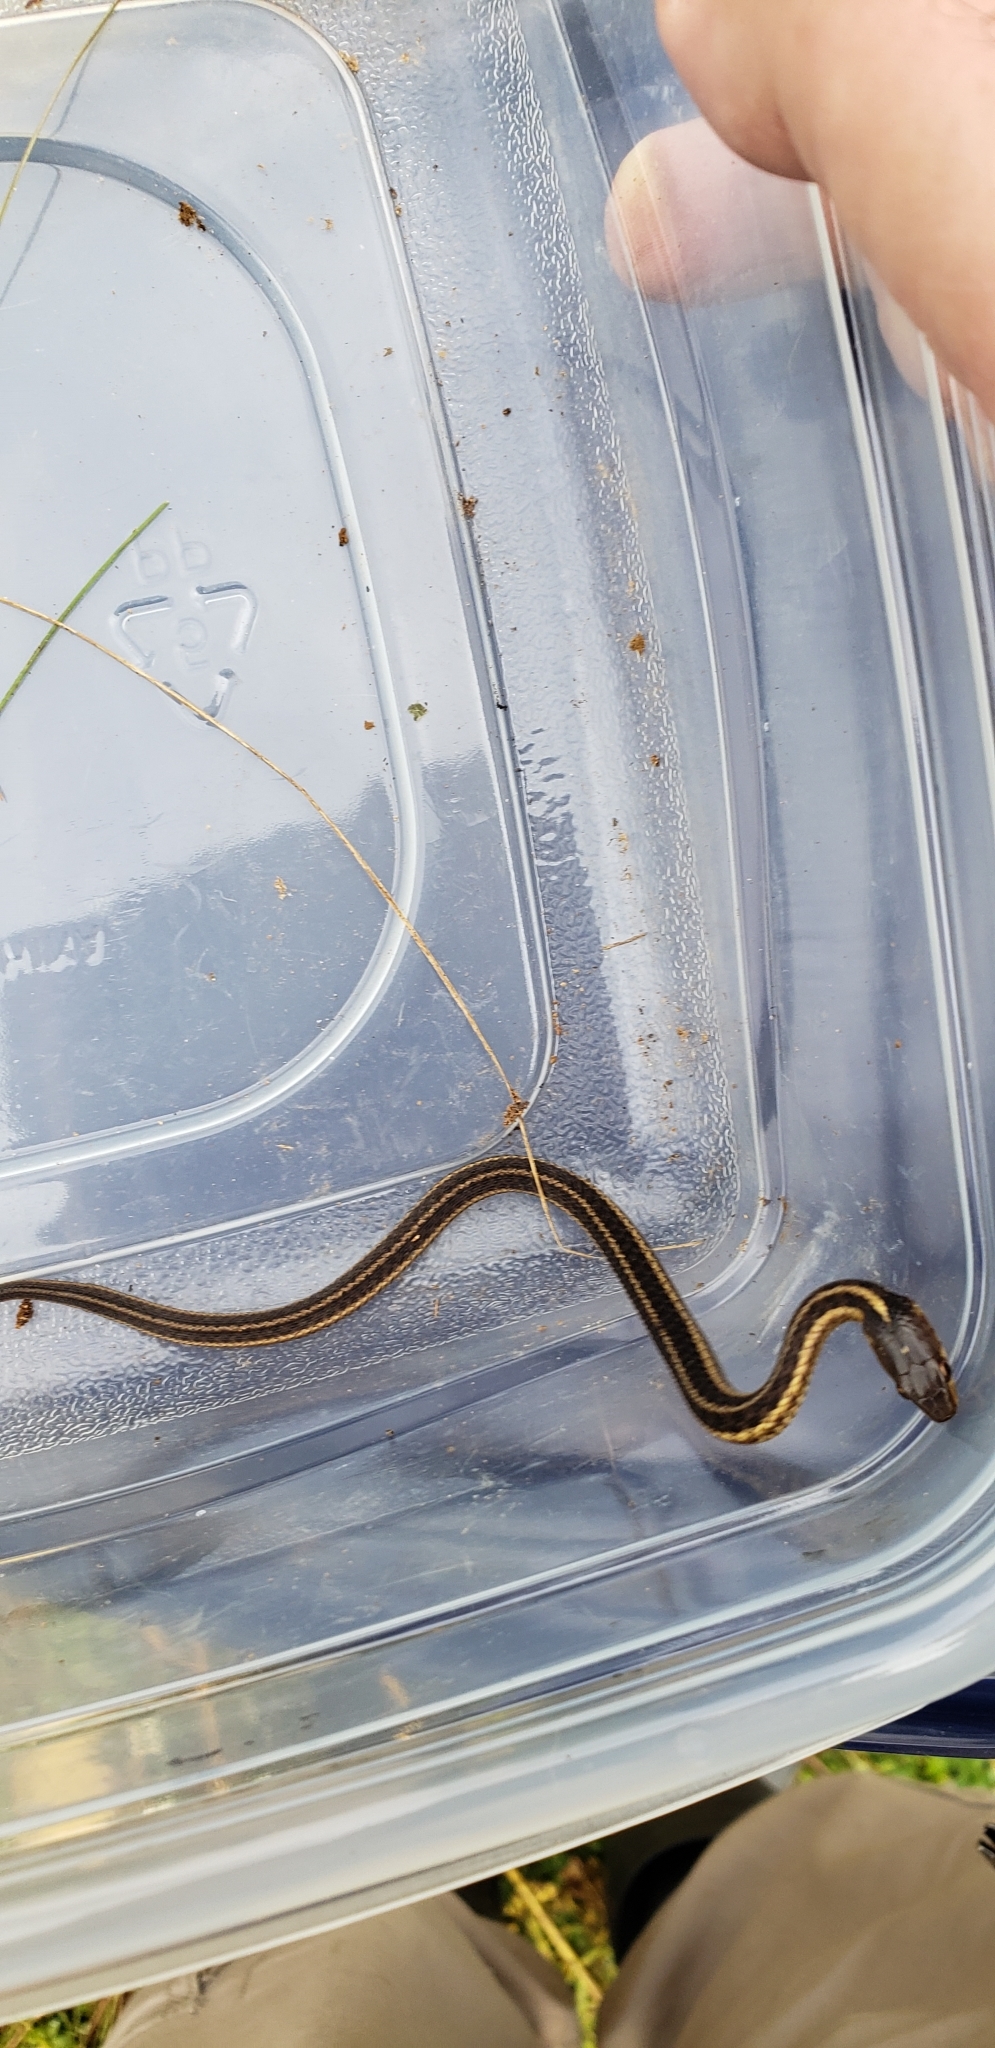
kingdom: Animalia
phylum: Chordata
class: Squamata
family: Colubridae
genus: Thamnophis
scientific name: Thamnophis sirtalis
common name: Common garter snake
